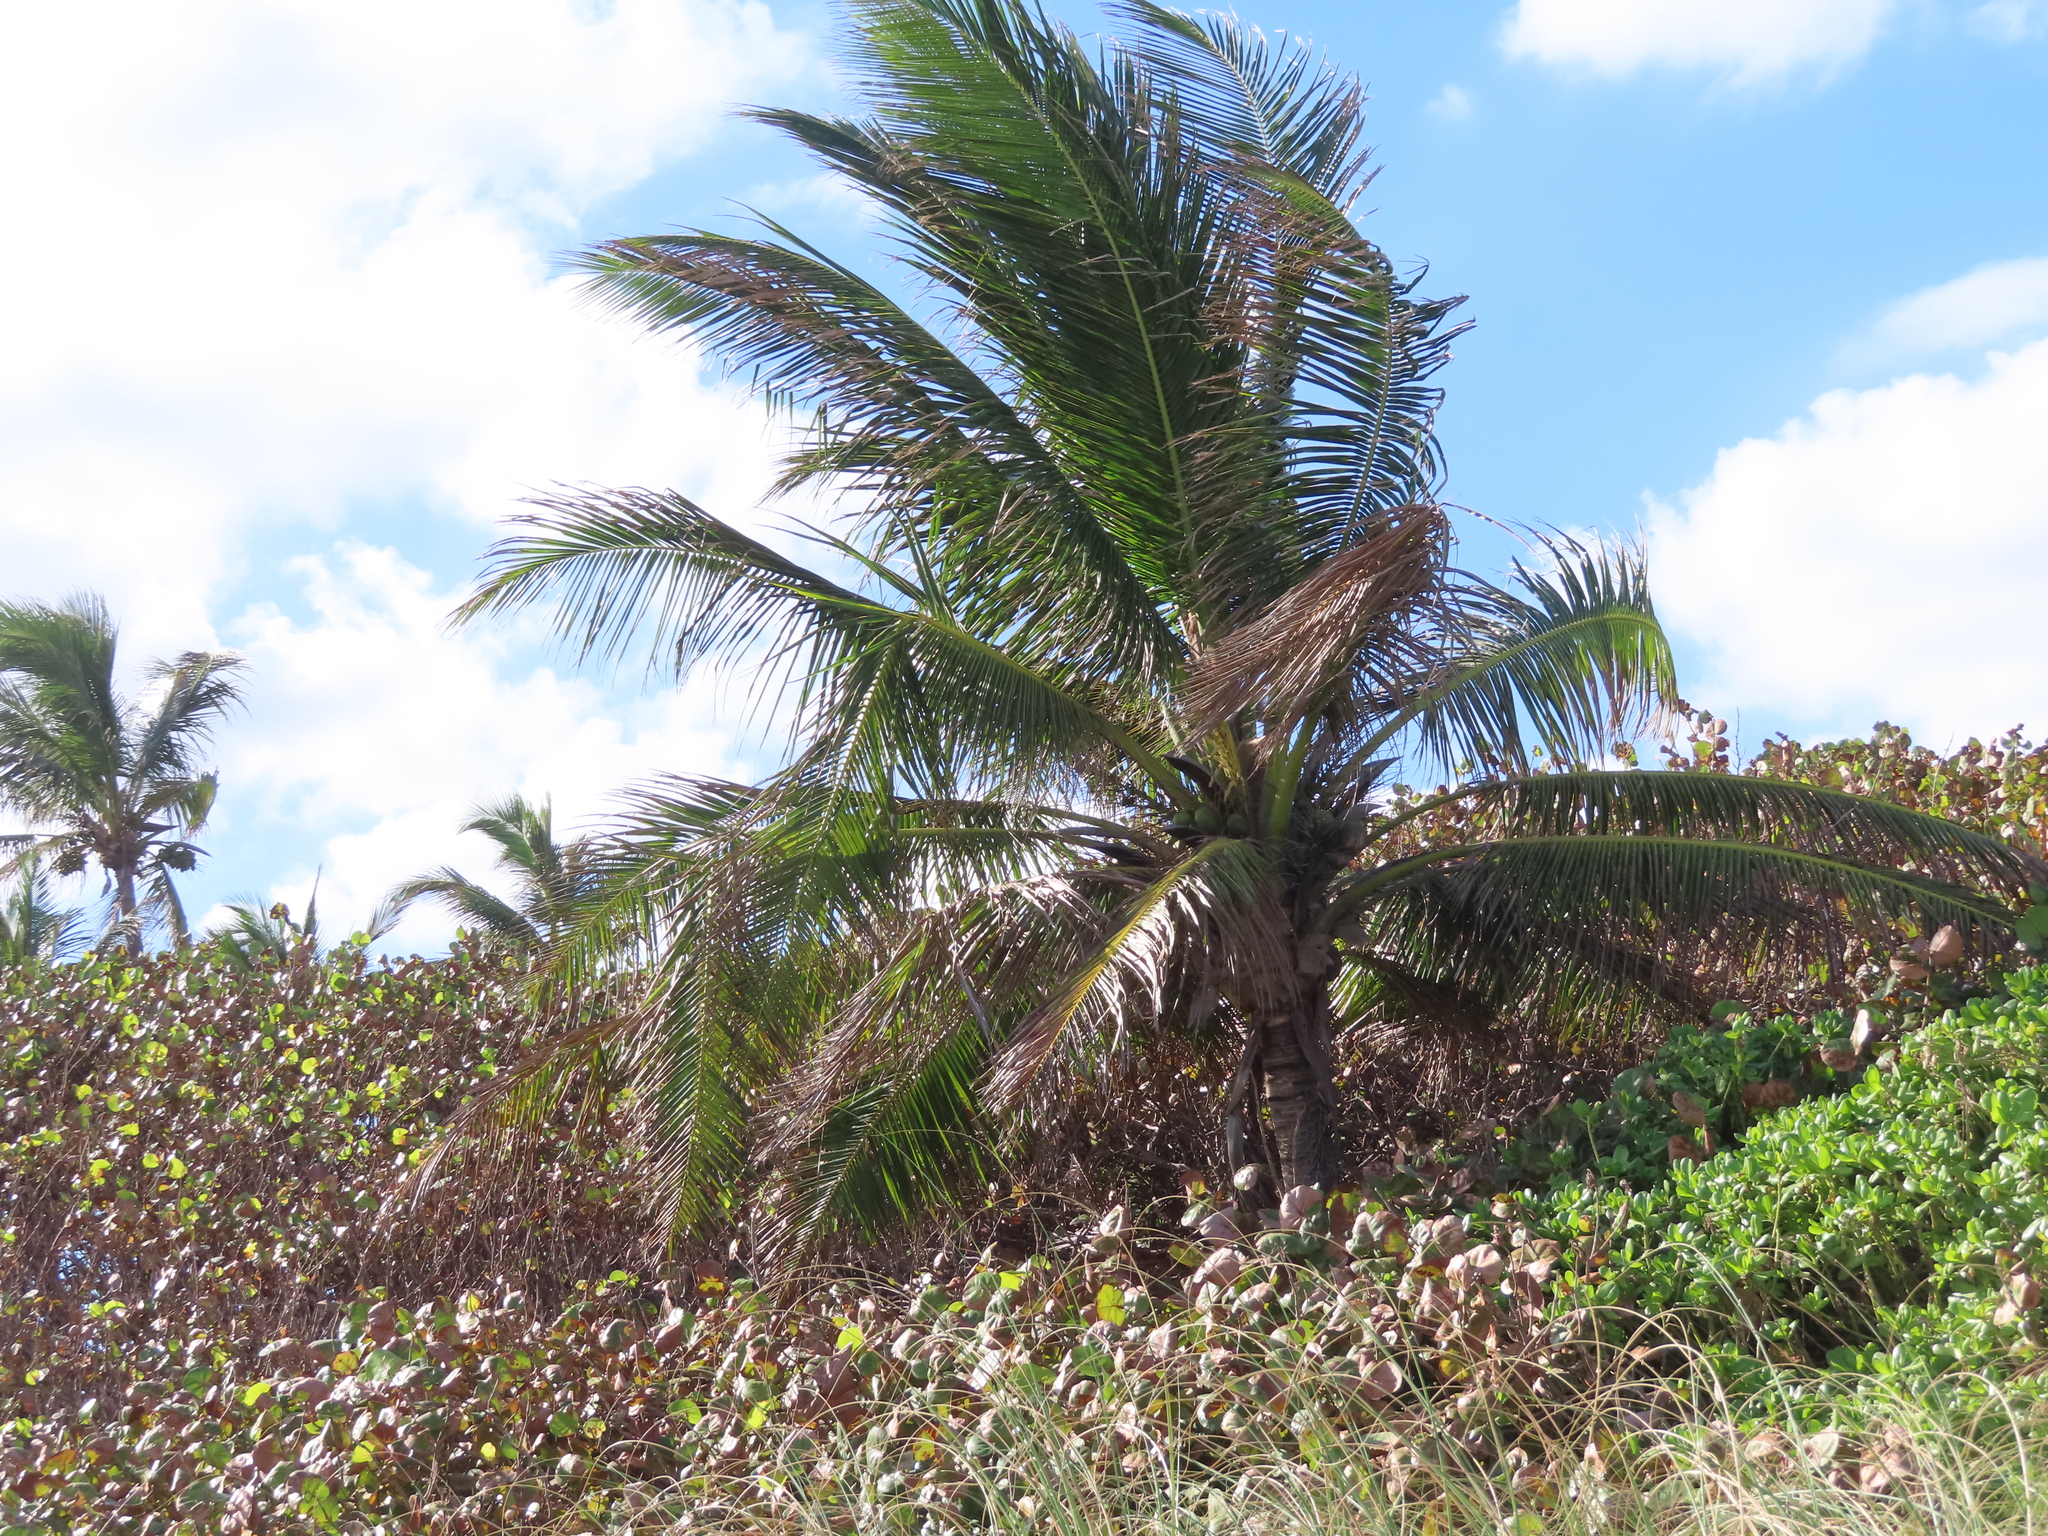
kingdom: Plantae
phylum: Tracheophyta
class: Liliopsida
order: Arecales
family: Arecaceae
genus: Cocos
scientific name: Cocos nucifera
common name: Coconut palm
